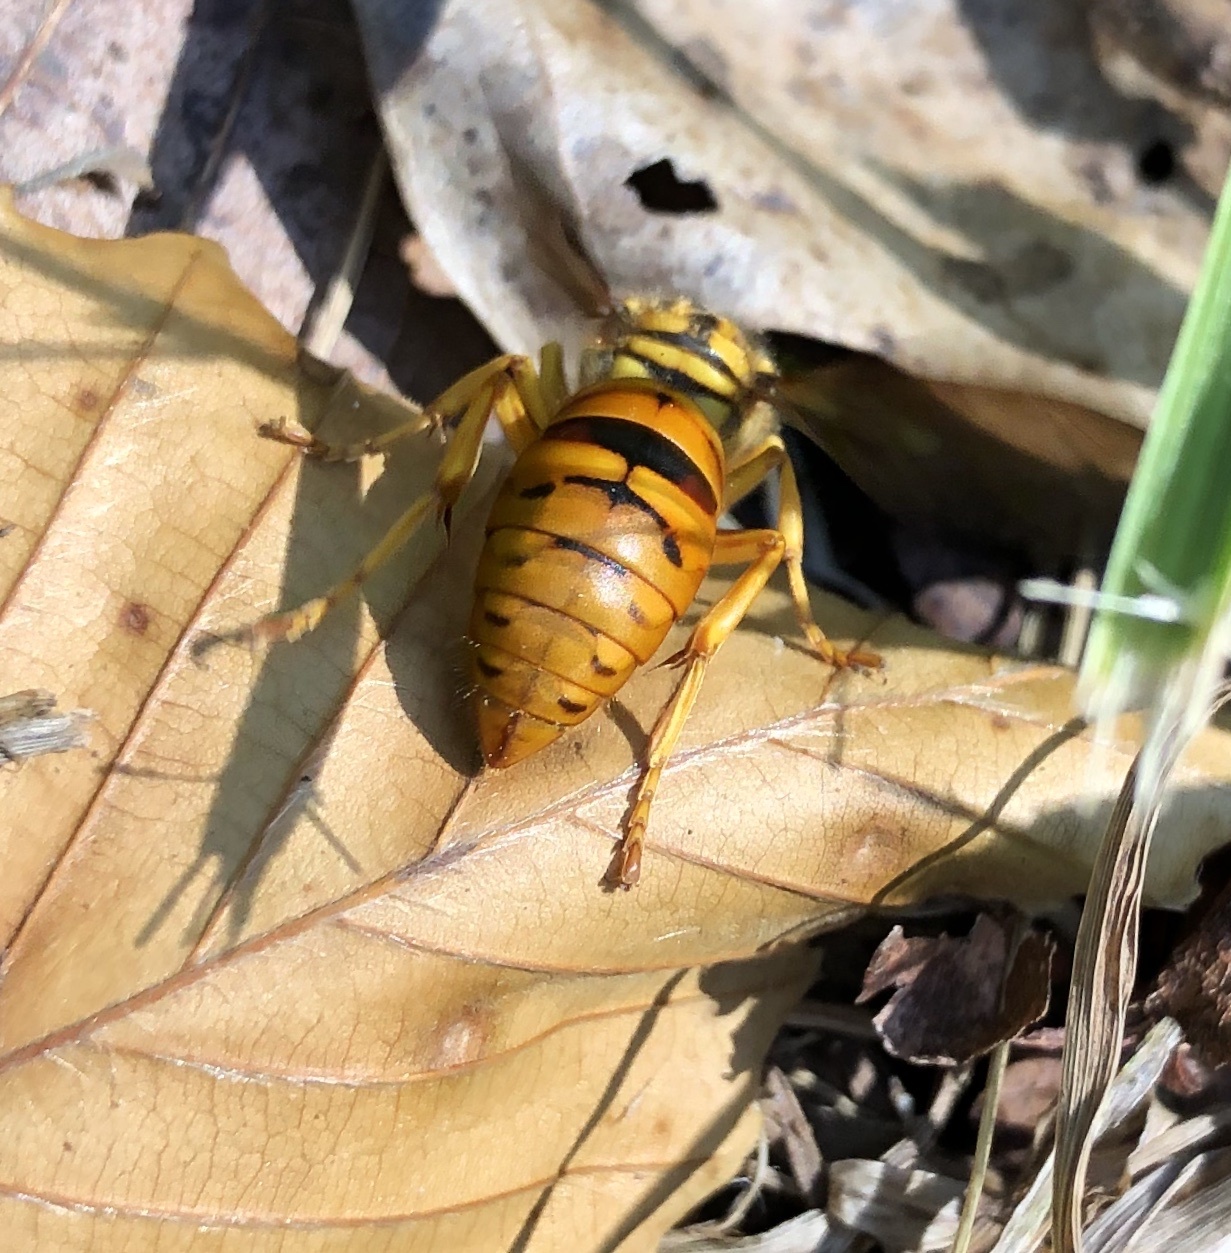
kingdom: Animalia
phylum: Arthropoda
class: Insecta
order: Hymenoptera
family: Vespidae
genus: Vespula
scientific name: Vespula squamosa
